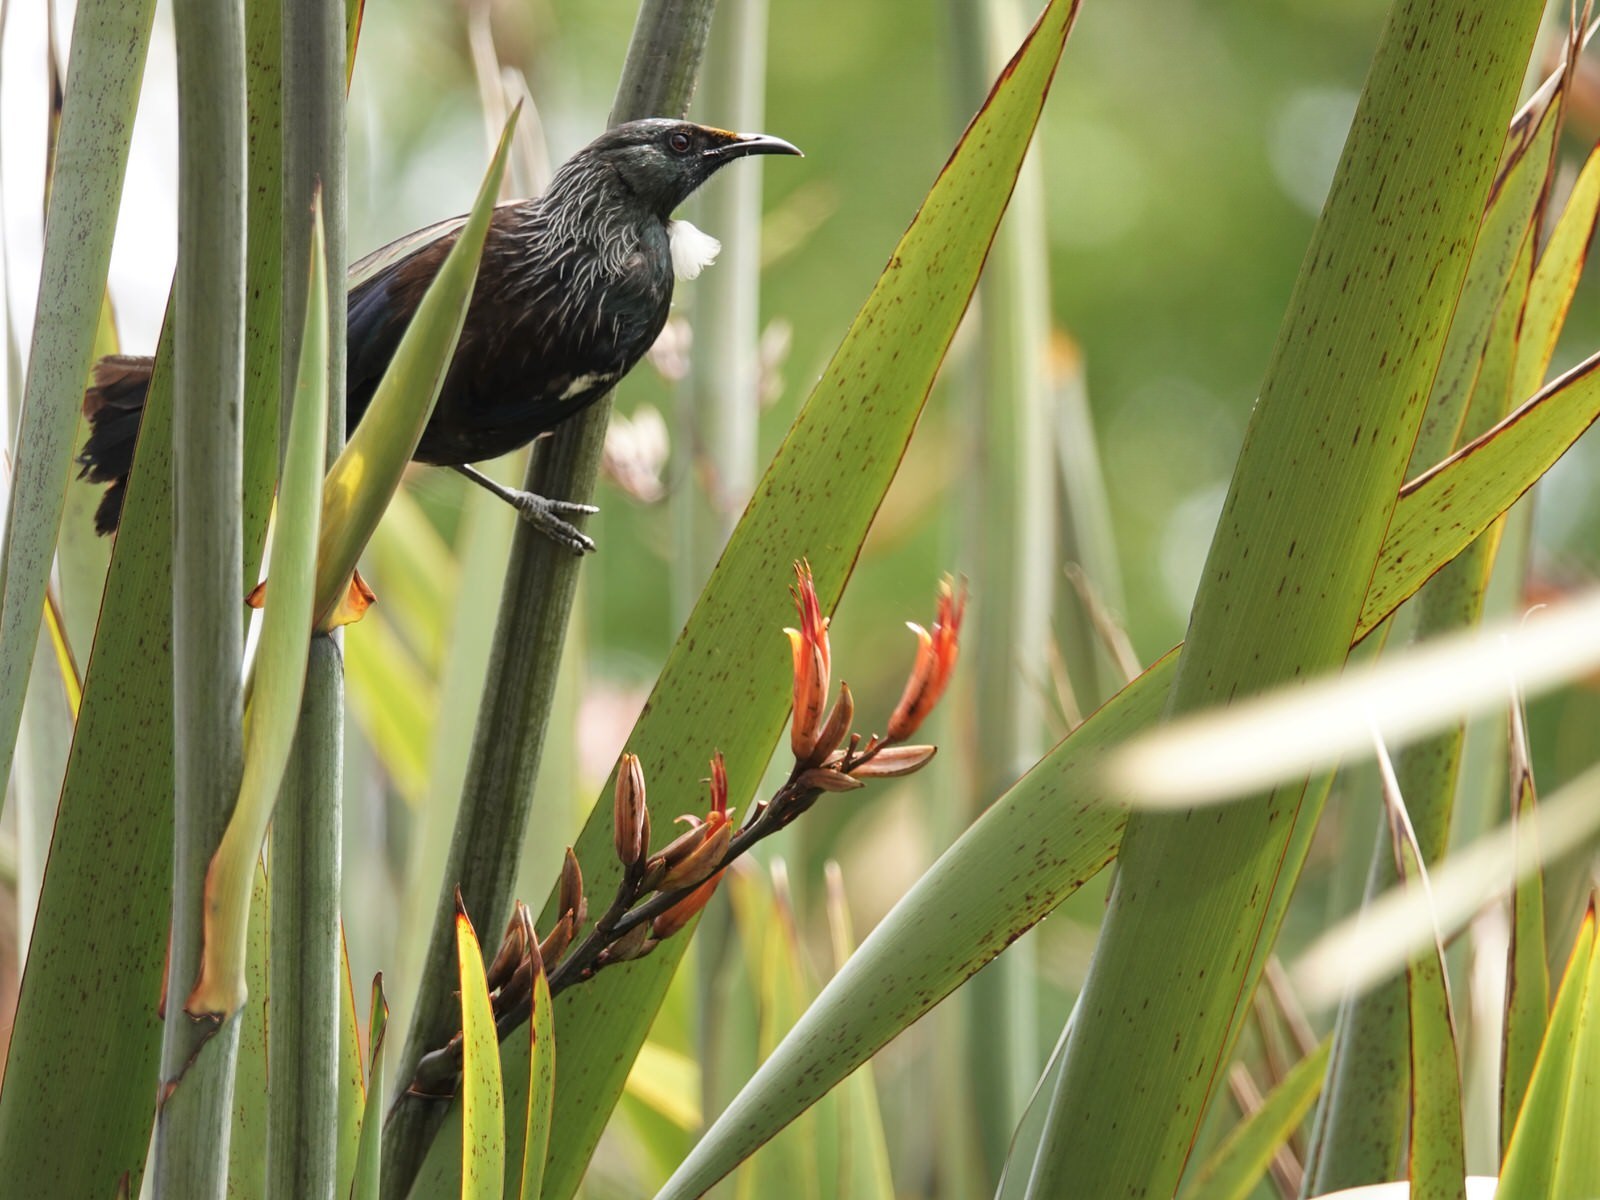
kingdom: Animalia
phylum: Chordata
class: Aves
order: Passeriformes
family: Meliphagidae
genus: Prosthemadera
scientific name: Prosthemadera novaeseelandiae
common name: Tui
